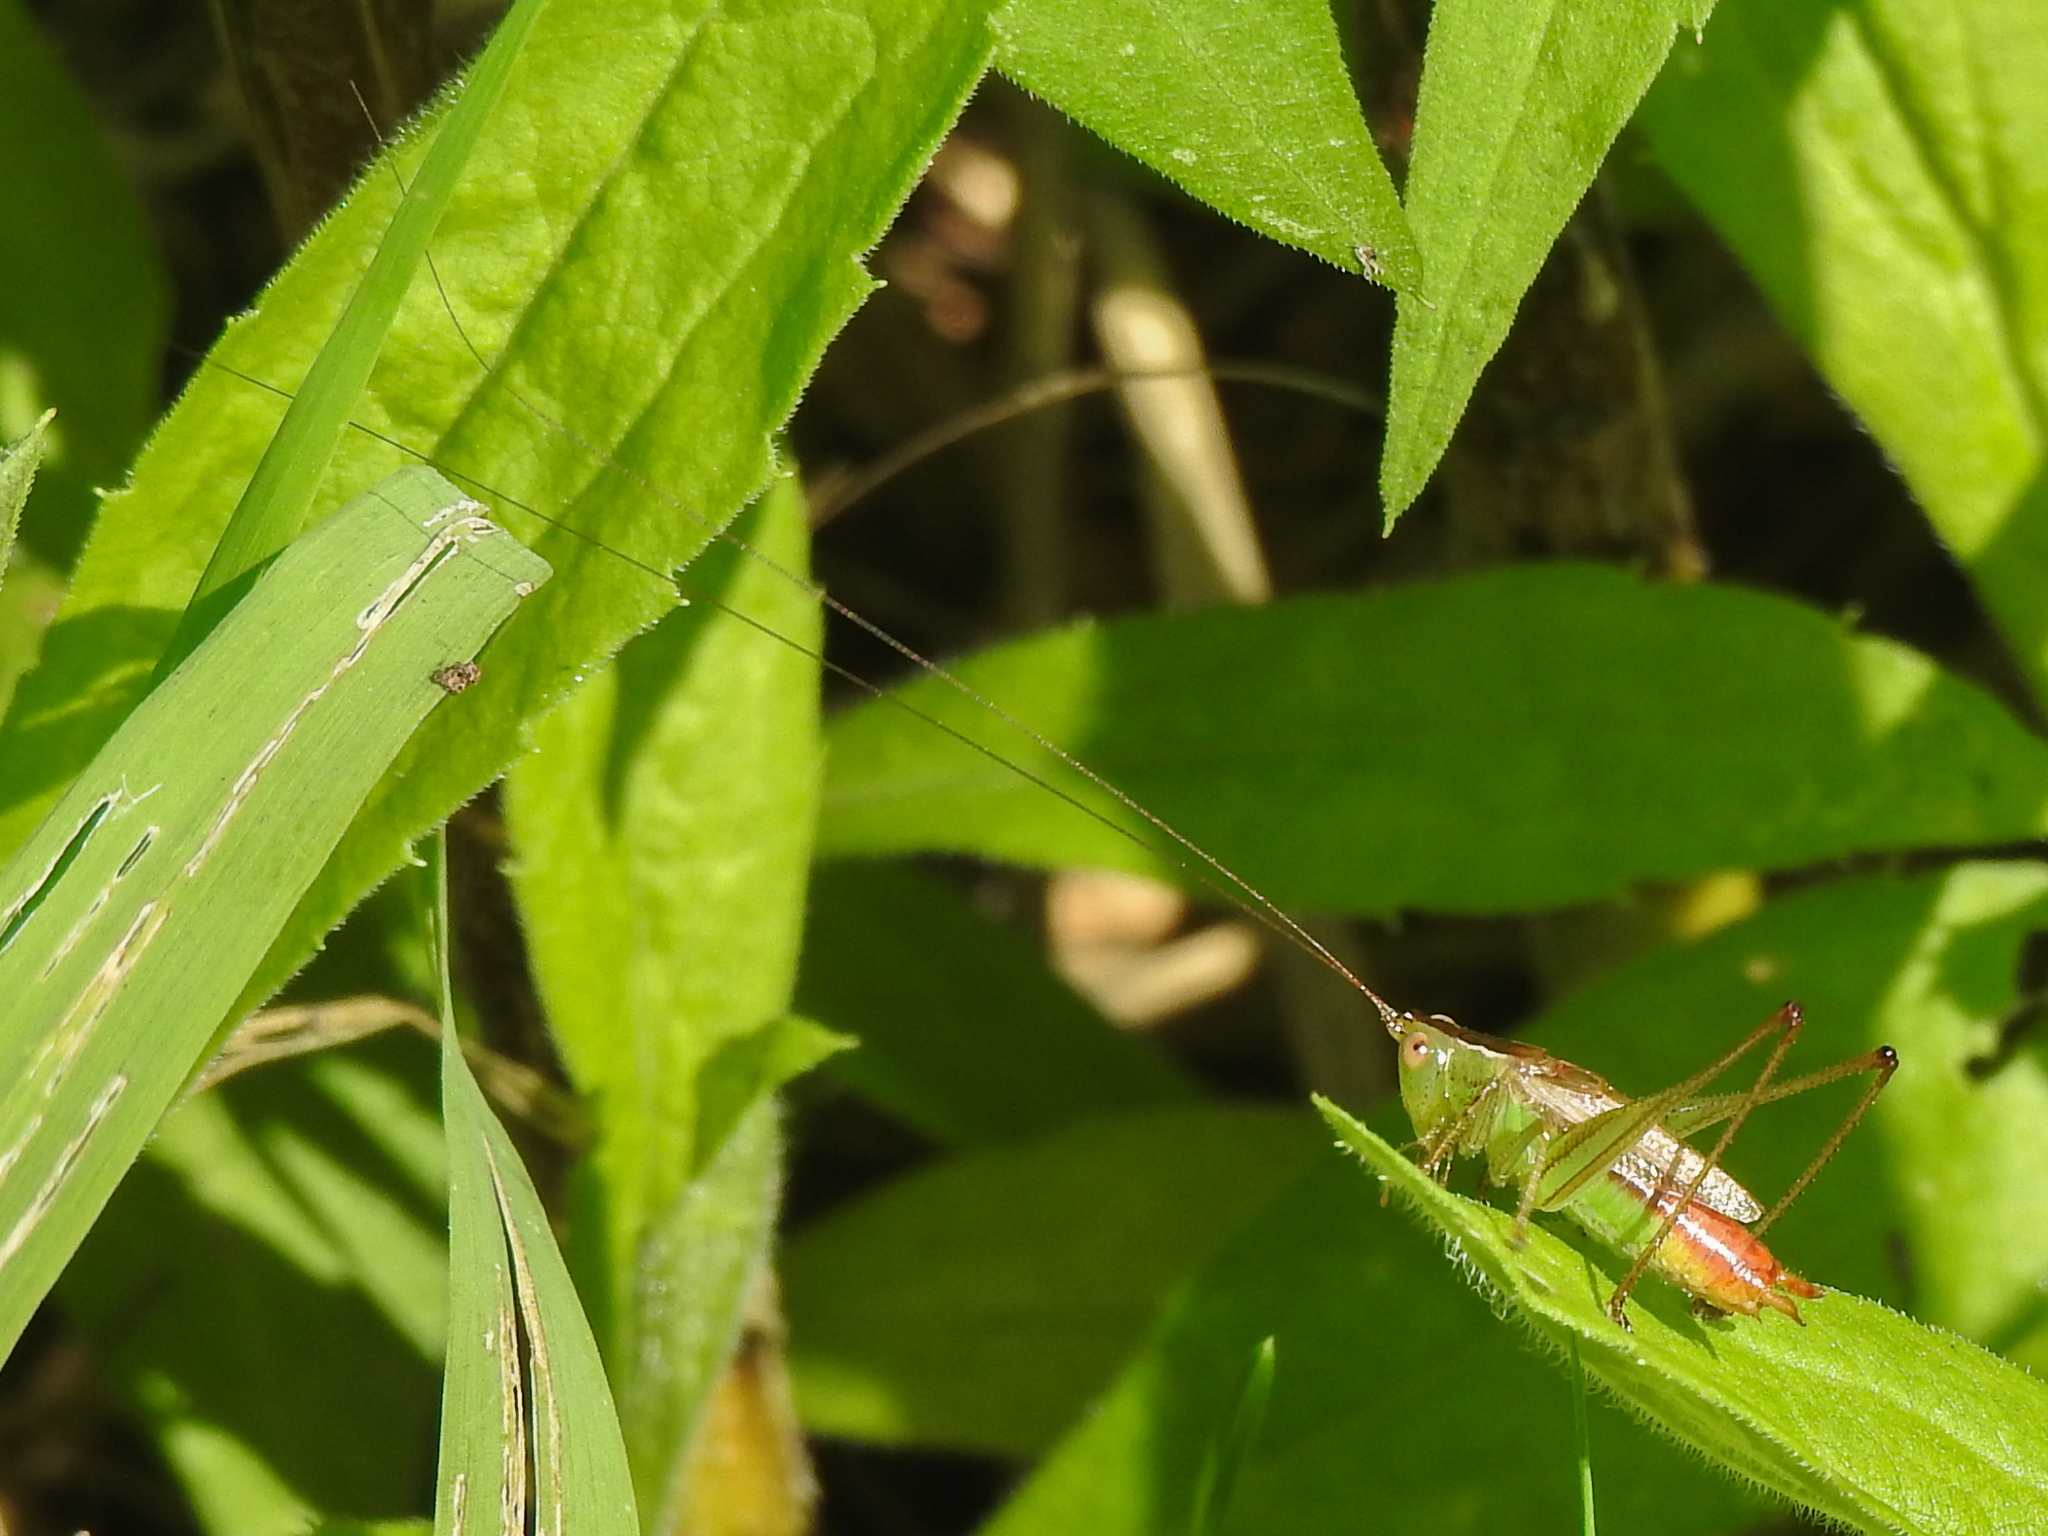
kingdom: Animalia
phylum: Arthropoda
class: Insecta
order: Orthoptera
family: Tettigoniidae
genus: Conocephalus
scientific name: Conocephalus brevipennis
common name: Short-winged meadow katydid
